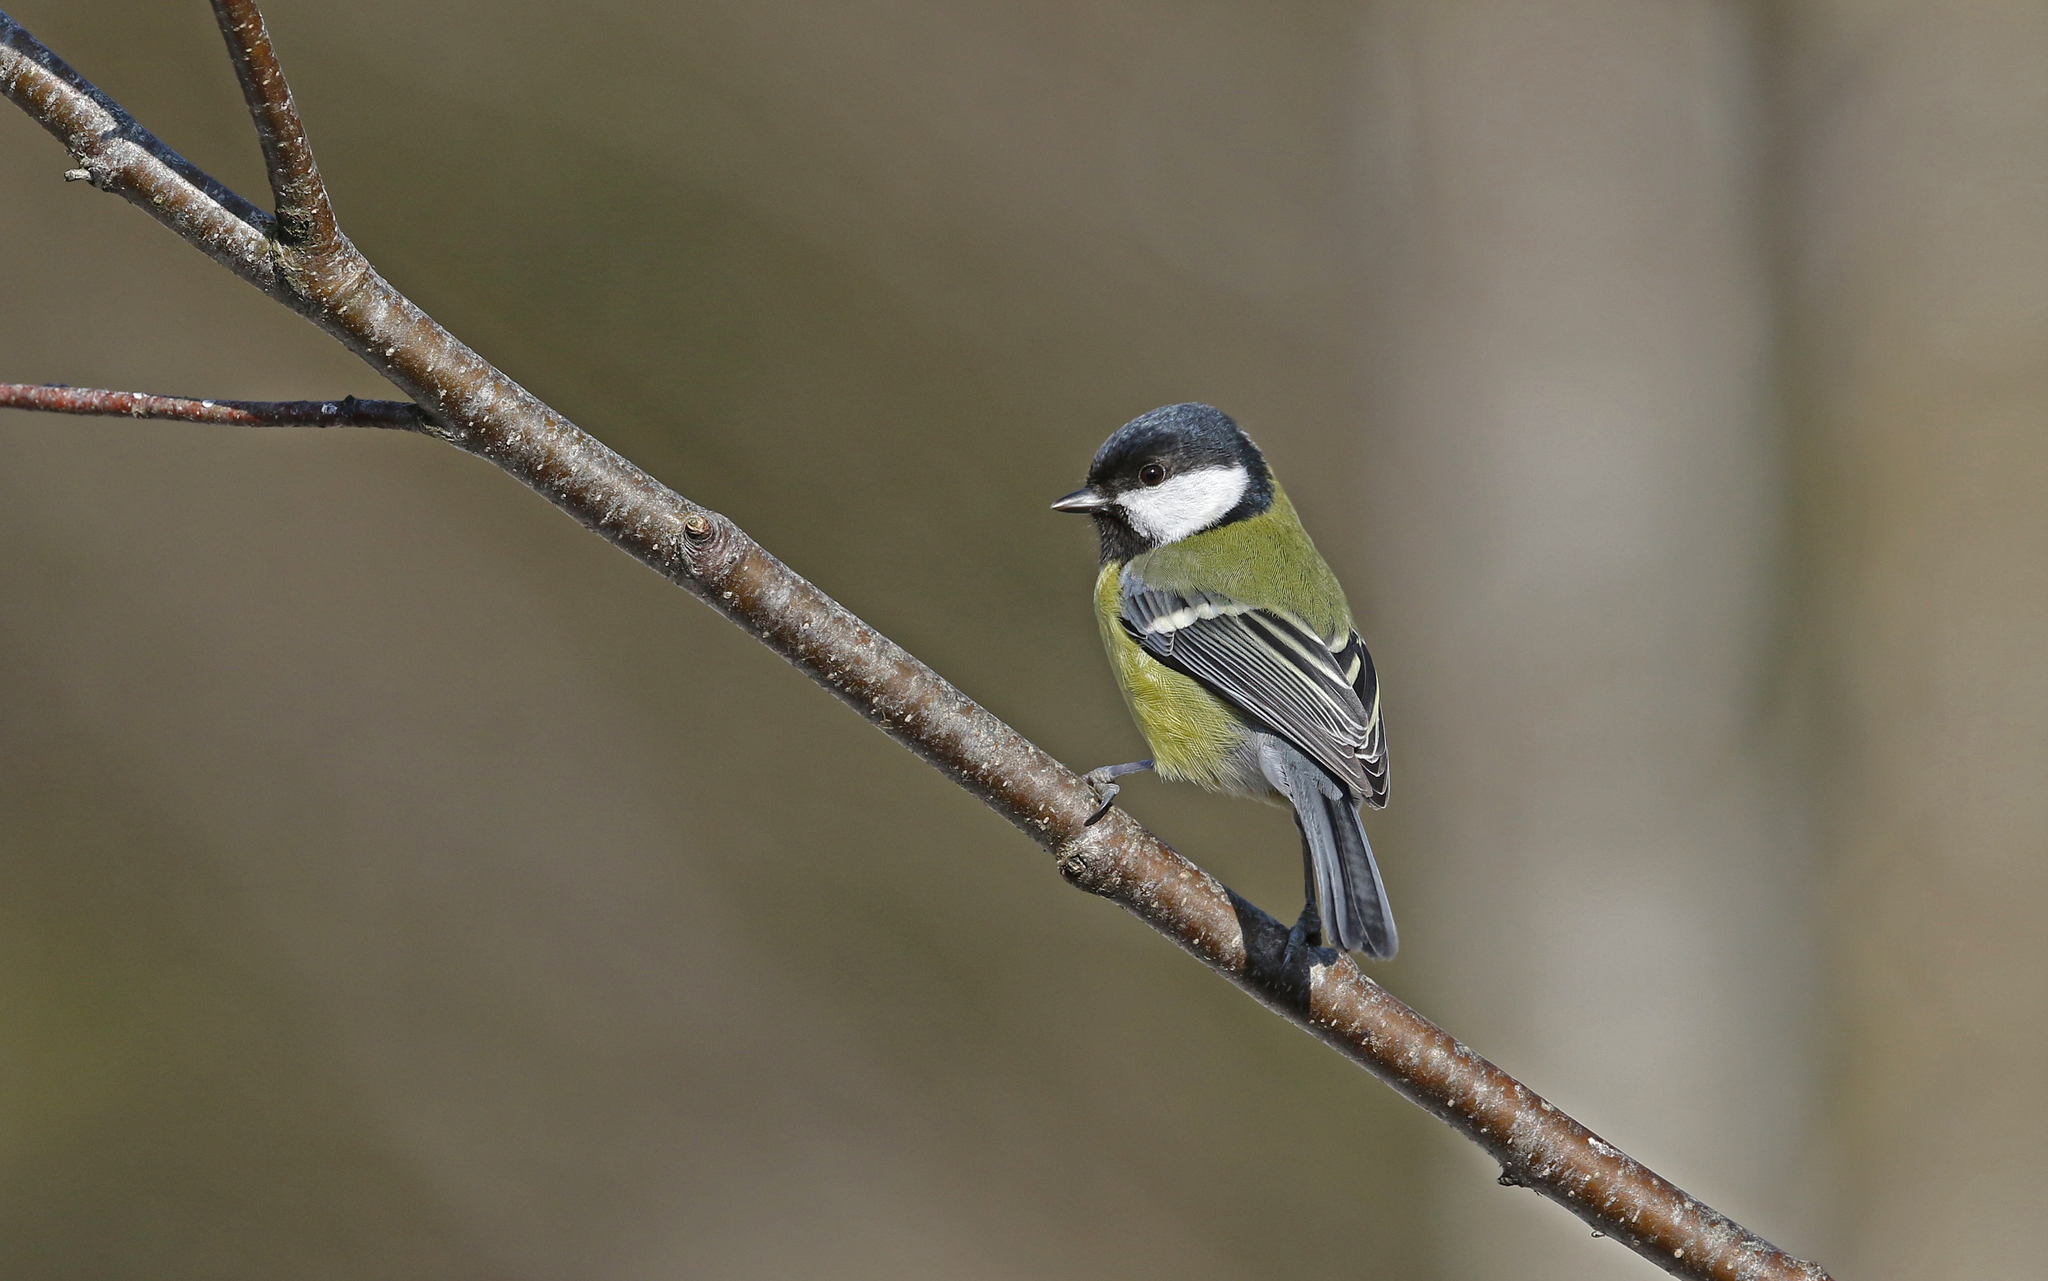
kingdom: Animalia
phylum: Chordata
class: Aves
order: Passeriformes
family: Paridae
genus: Parus
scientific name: Parus major
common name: Great tit
